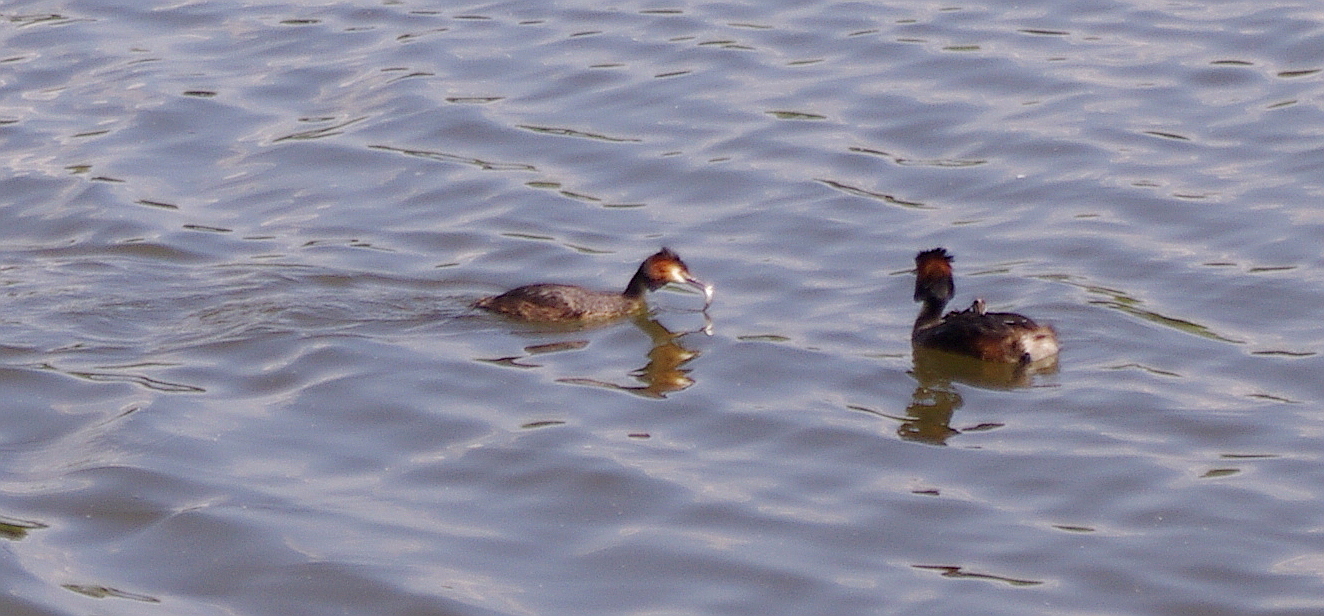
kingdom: Animalia
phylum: Chordata
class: Aves
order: Podicipediformes
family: Podicipedidae
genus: Podiceps
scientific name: Podiceps cristatus
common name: Great crested grebe
